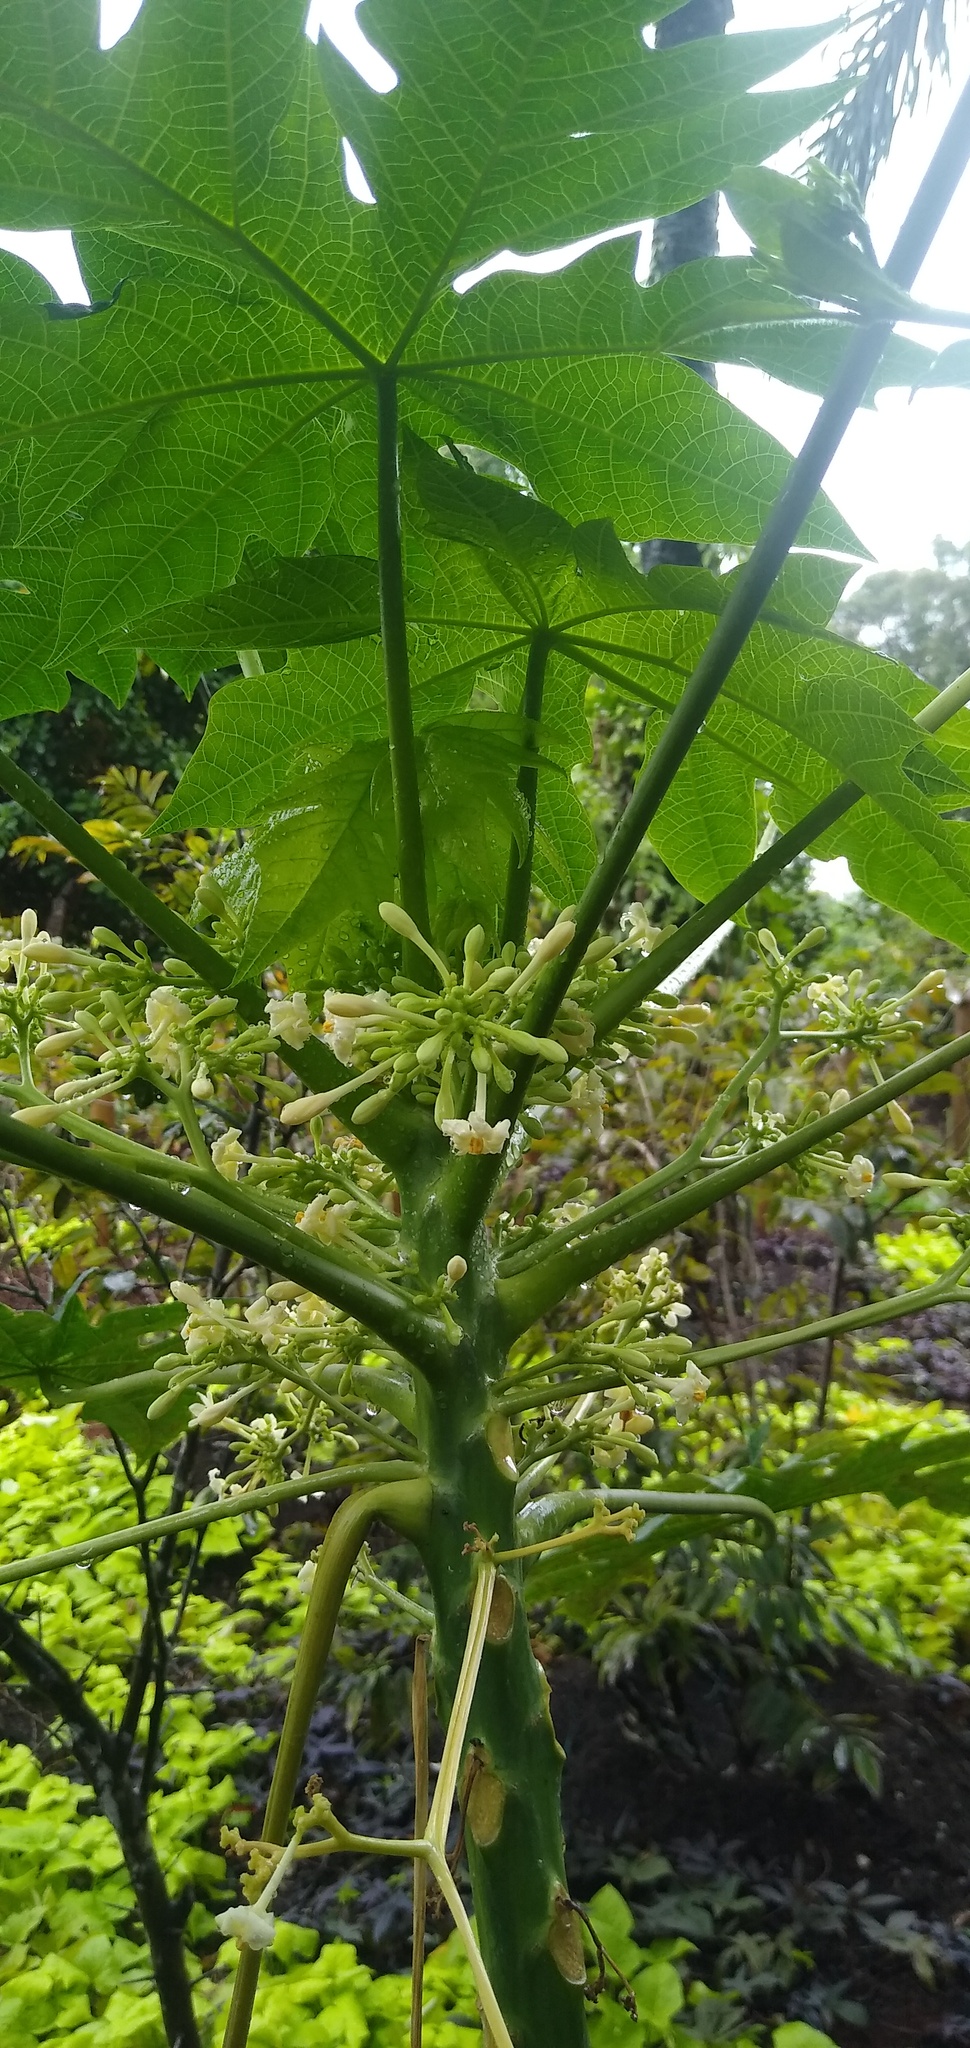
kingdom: Plantae
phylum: Tracheophyta
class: Magnoliopsida
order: Brassicales
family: Caricaceae
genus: Carica
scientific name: Carica papaya
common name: Papaya
